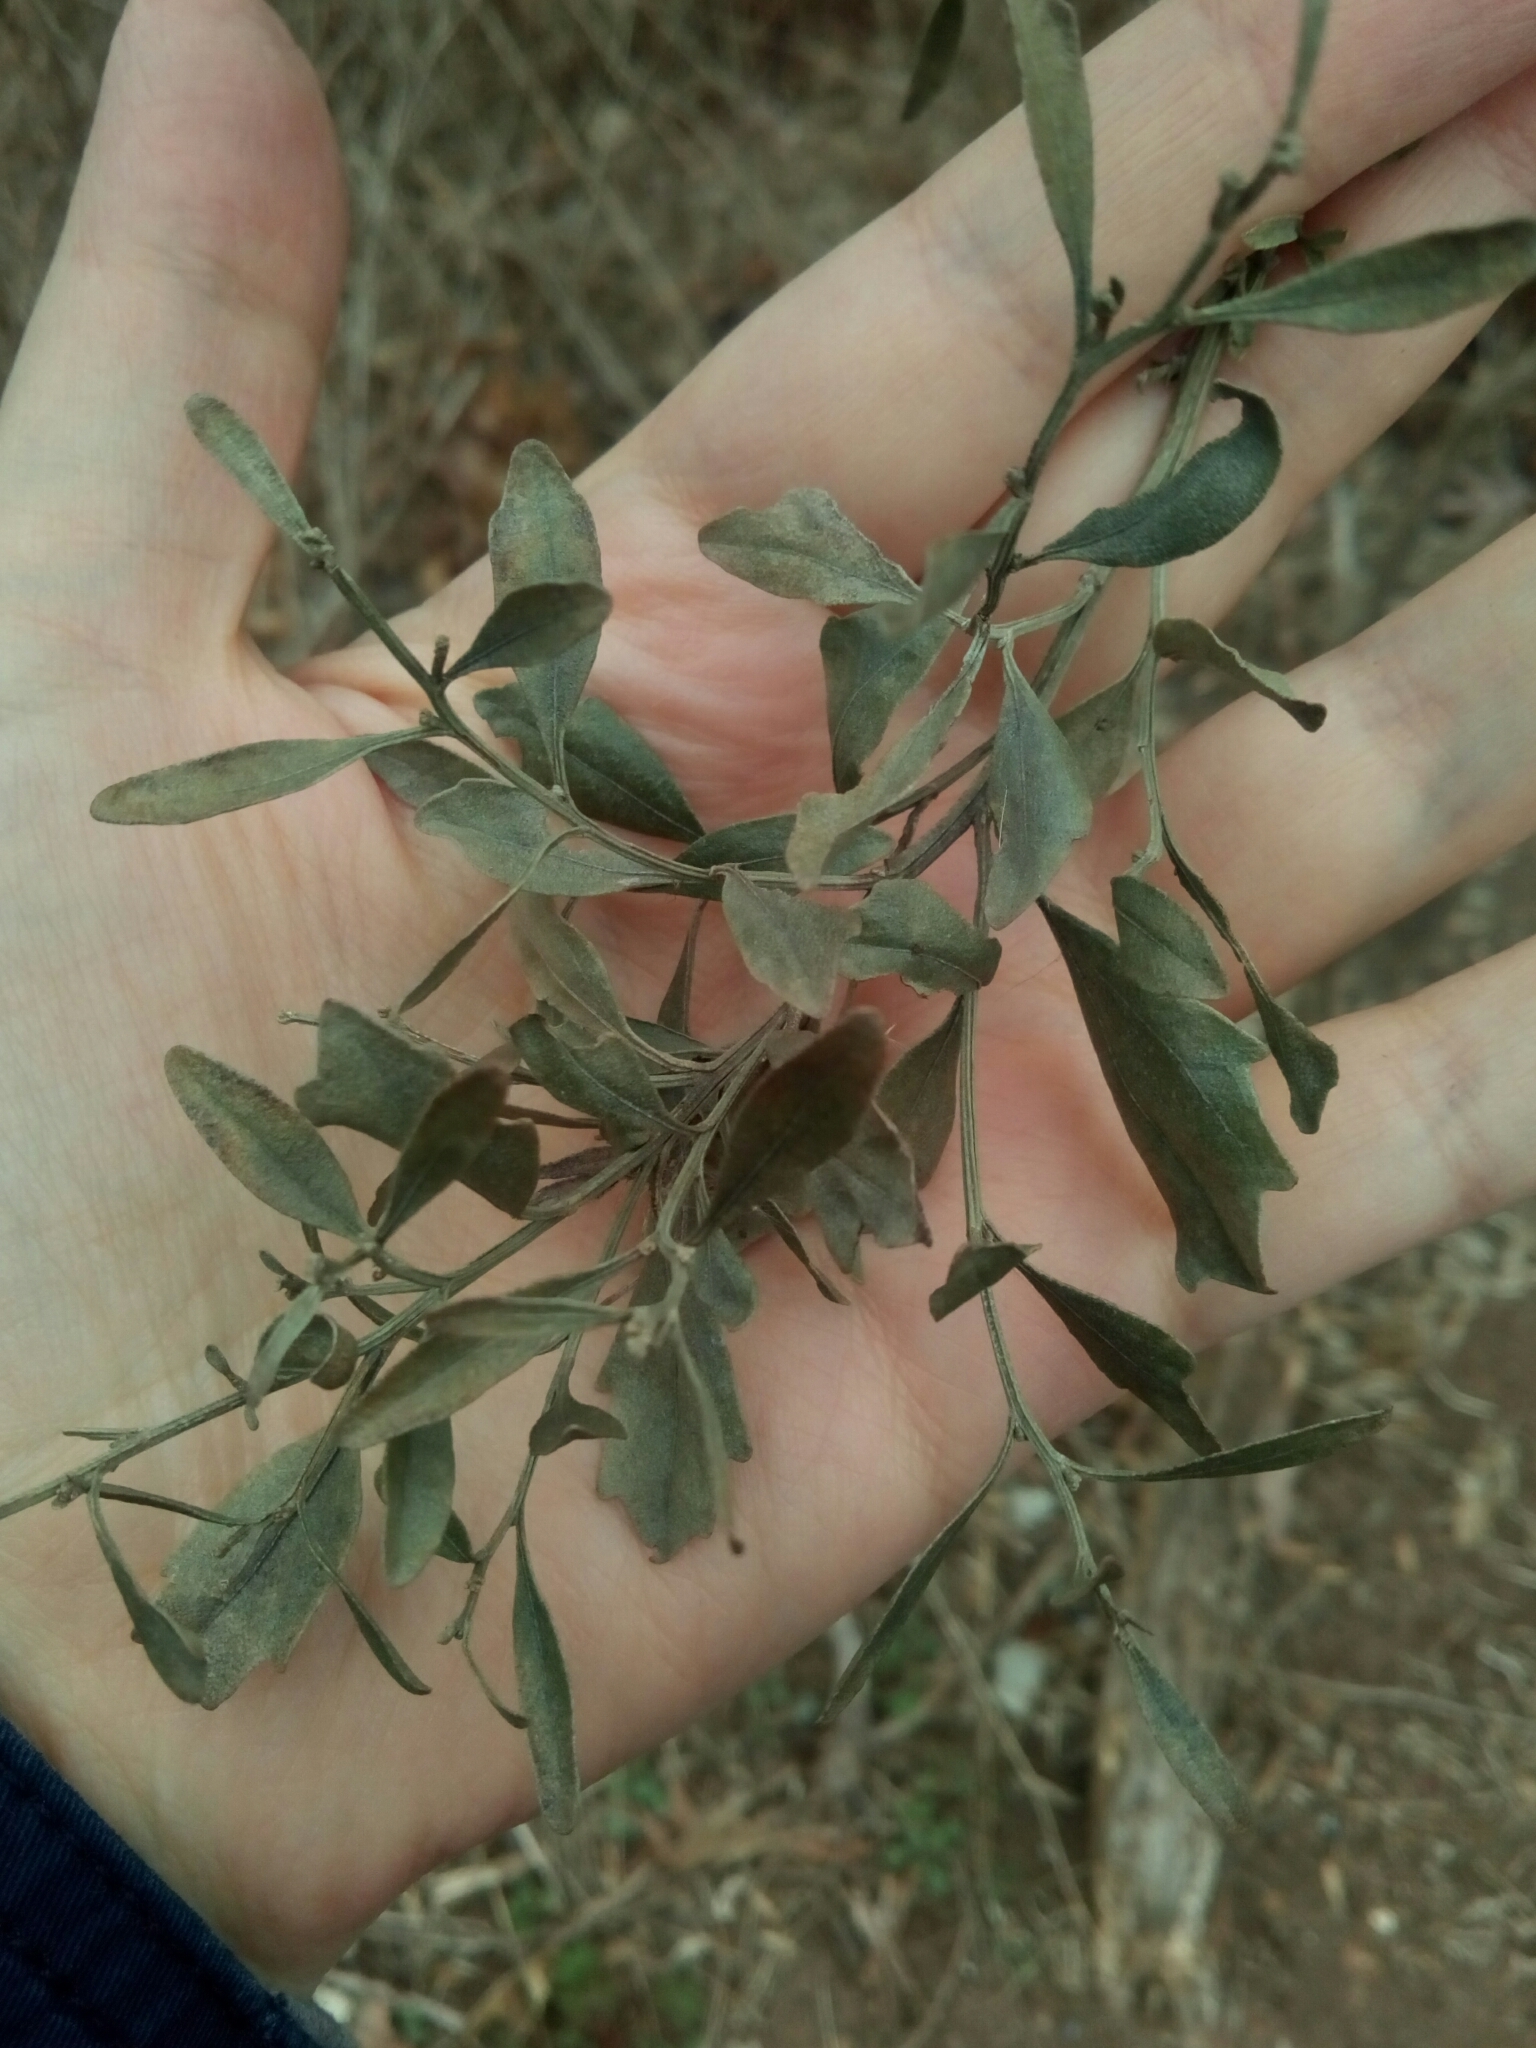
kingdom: Plantae
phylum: Tracheophyta
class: Magnoliopsida
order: Asterales
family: Asteraceae
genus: Baccharis
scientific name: Baccharis halimifolia
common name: Eastern baccharis
